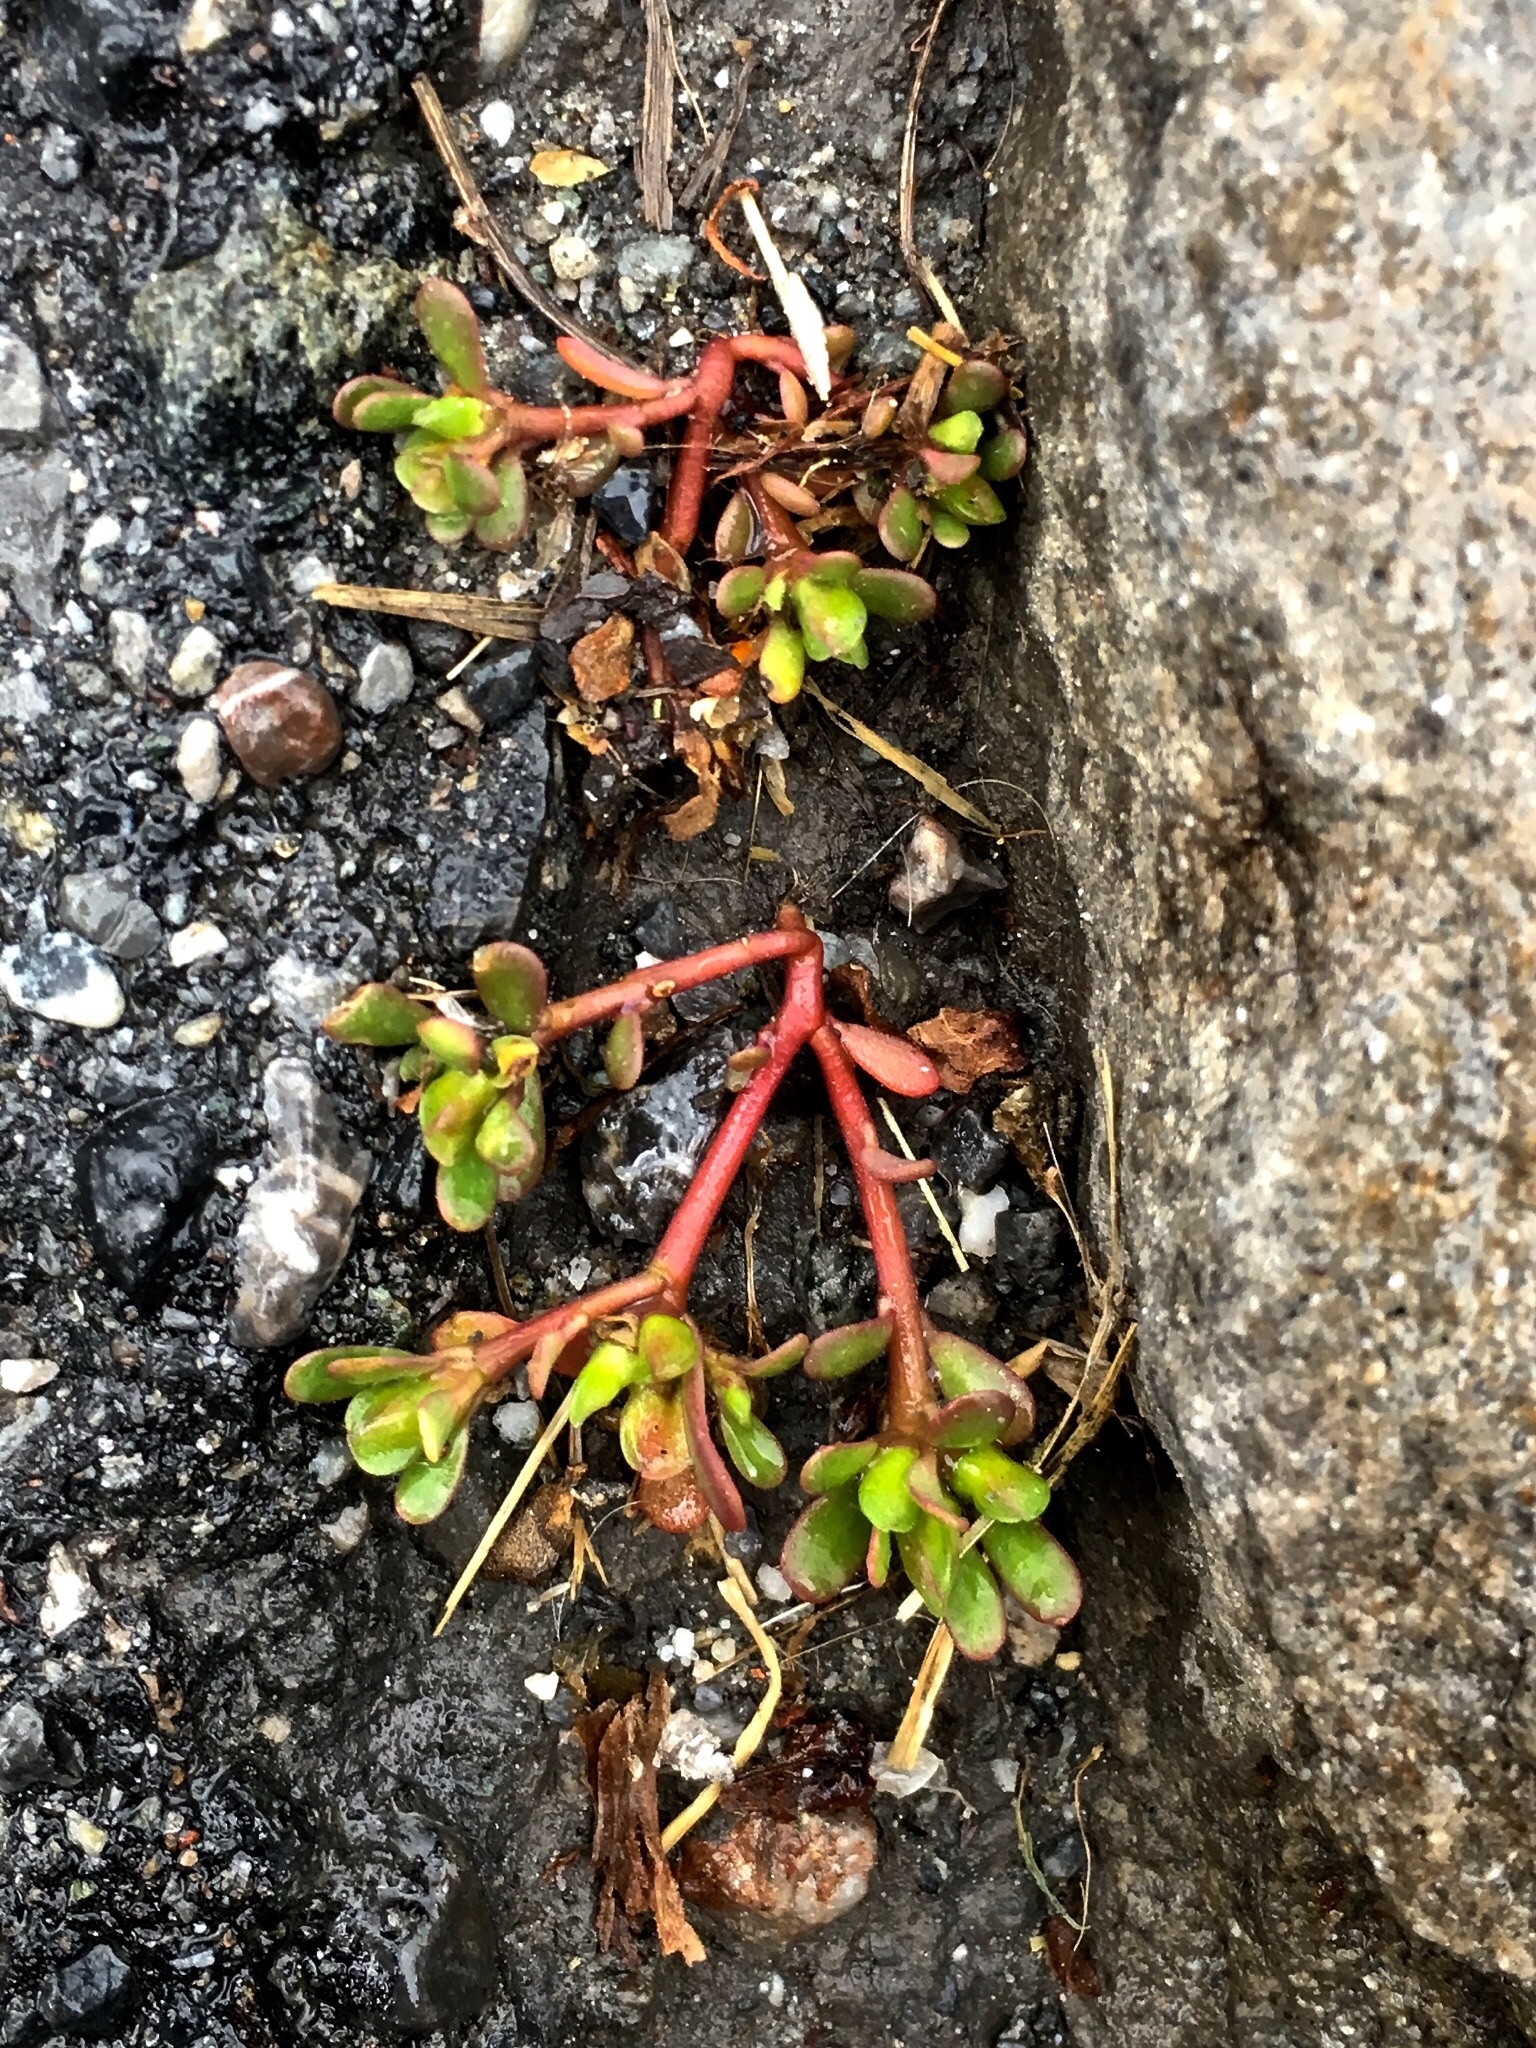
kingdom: Plantae
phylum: Tracheophyta
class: Magnoliopsida
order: Caryophyllales
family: Portulacaceae
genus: Portulaca
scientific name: Portulaca oleracea
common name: Common purslane
